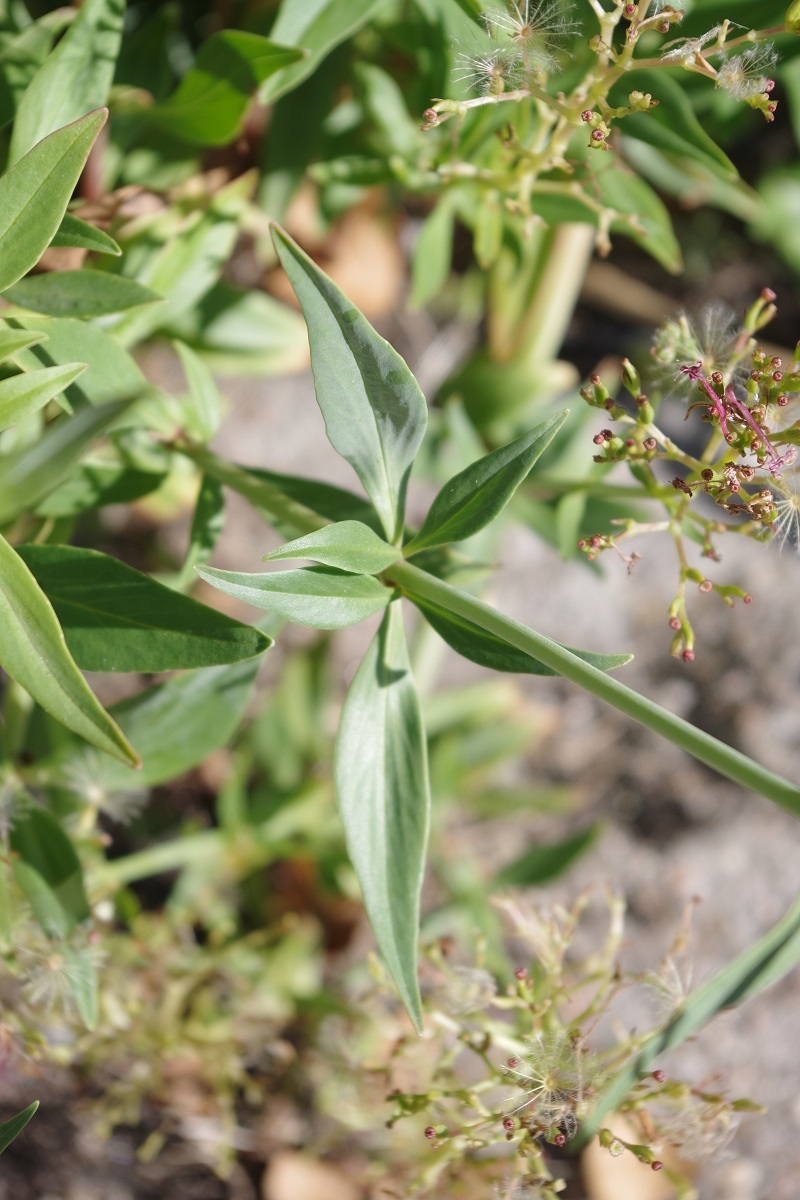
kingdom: Plantae
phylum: Tracheophyta
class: Magnoliopsida
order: Dipsacales
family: Caprifoliaceae
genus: Centranthus
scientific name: Centranthus ruber
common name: Red valerian
